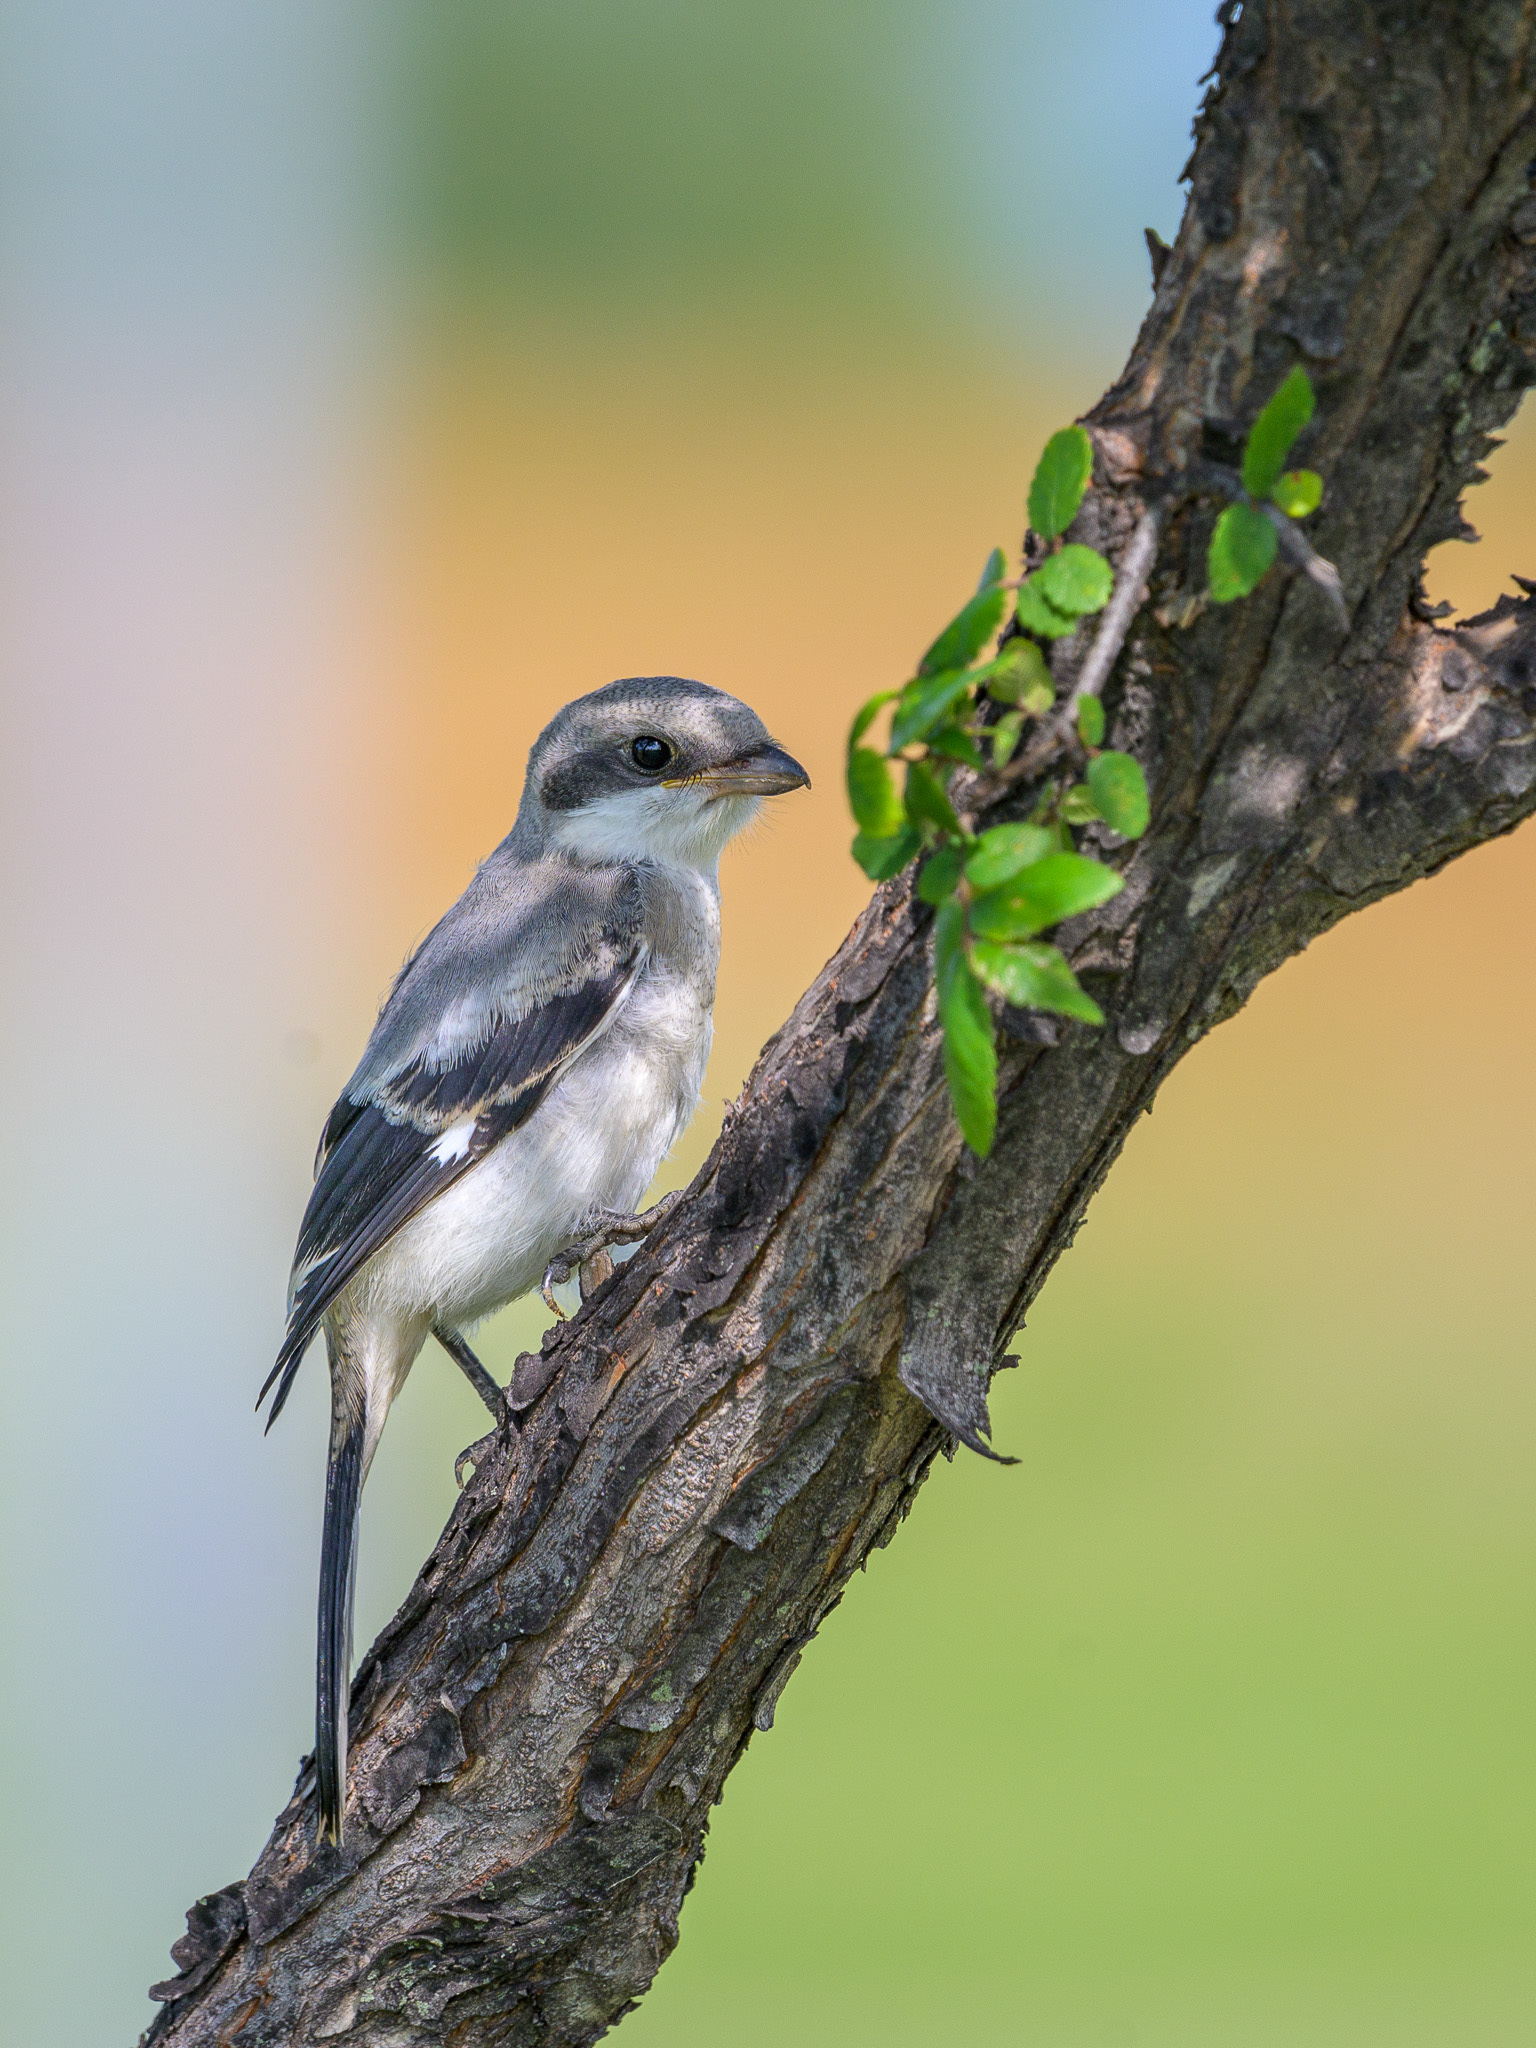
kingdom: Animalia
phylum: Chordata
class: Aves
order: Passeriformes
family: Laniidae
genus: Lanius
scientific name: Lanius ludovicianus
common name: Loggerhead shrike
